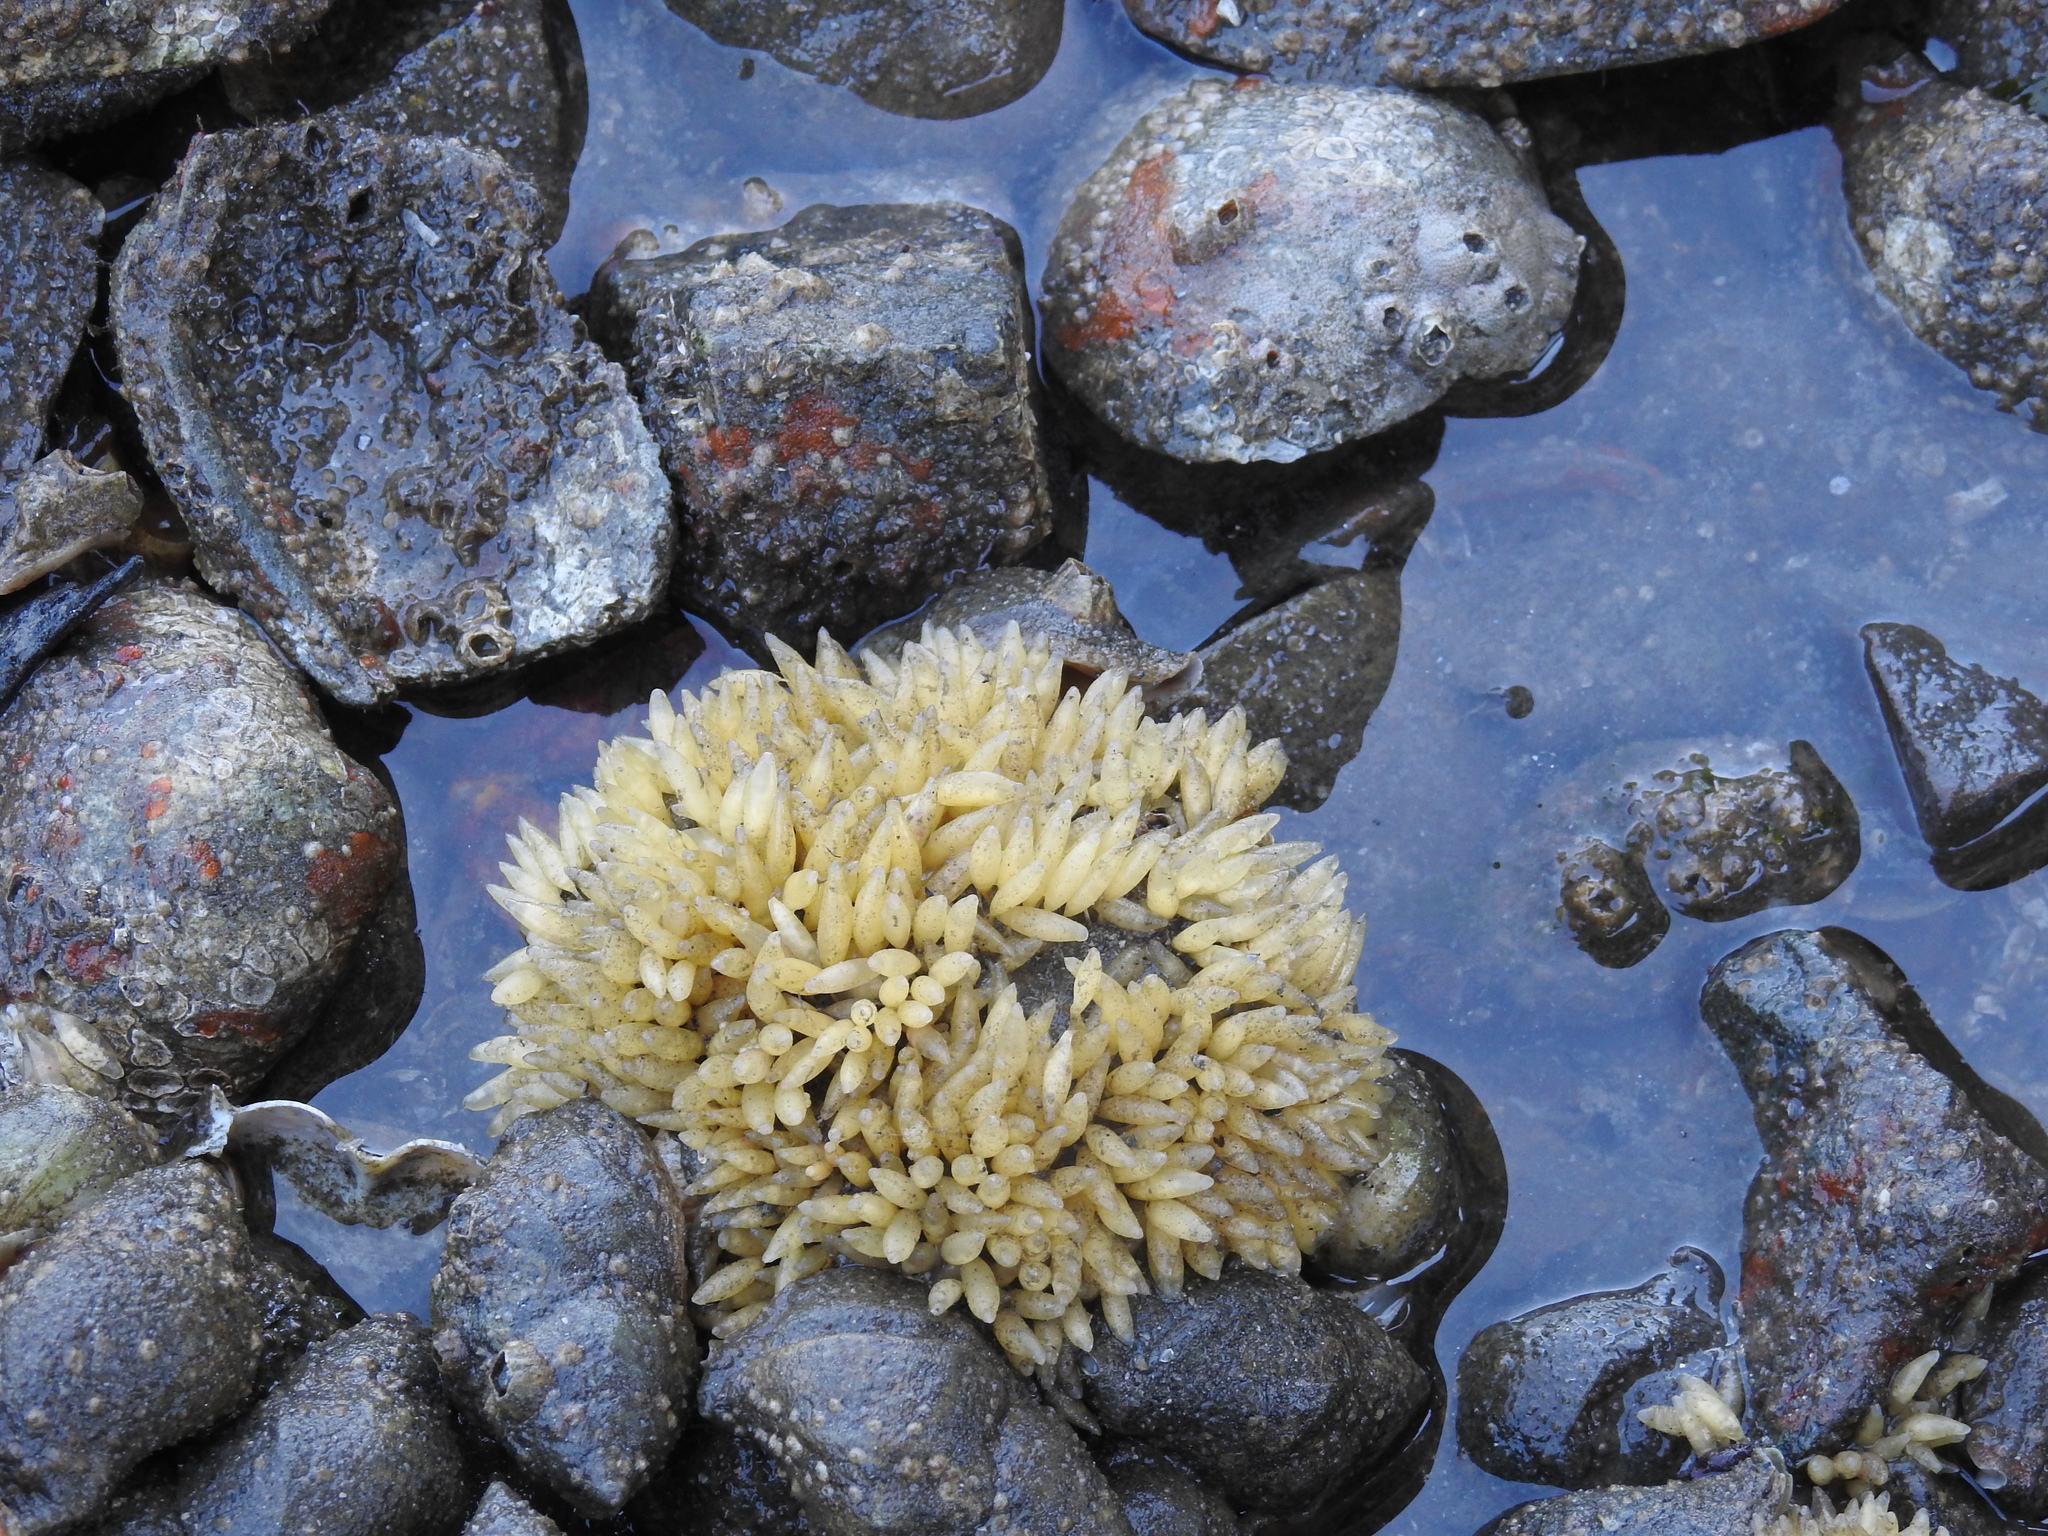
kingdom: Animalia
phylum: Mollusca
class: Gastropoda
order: Neogastropoda
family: Muricidae
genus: Nucella
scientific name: Nucella lamellosa
